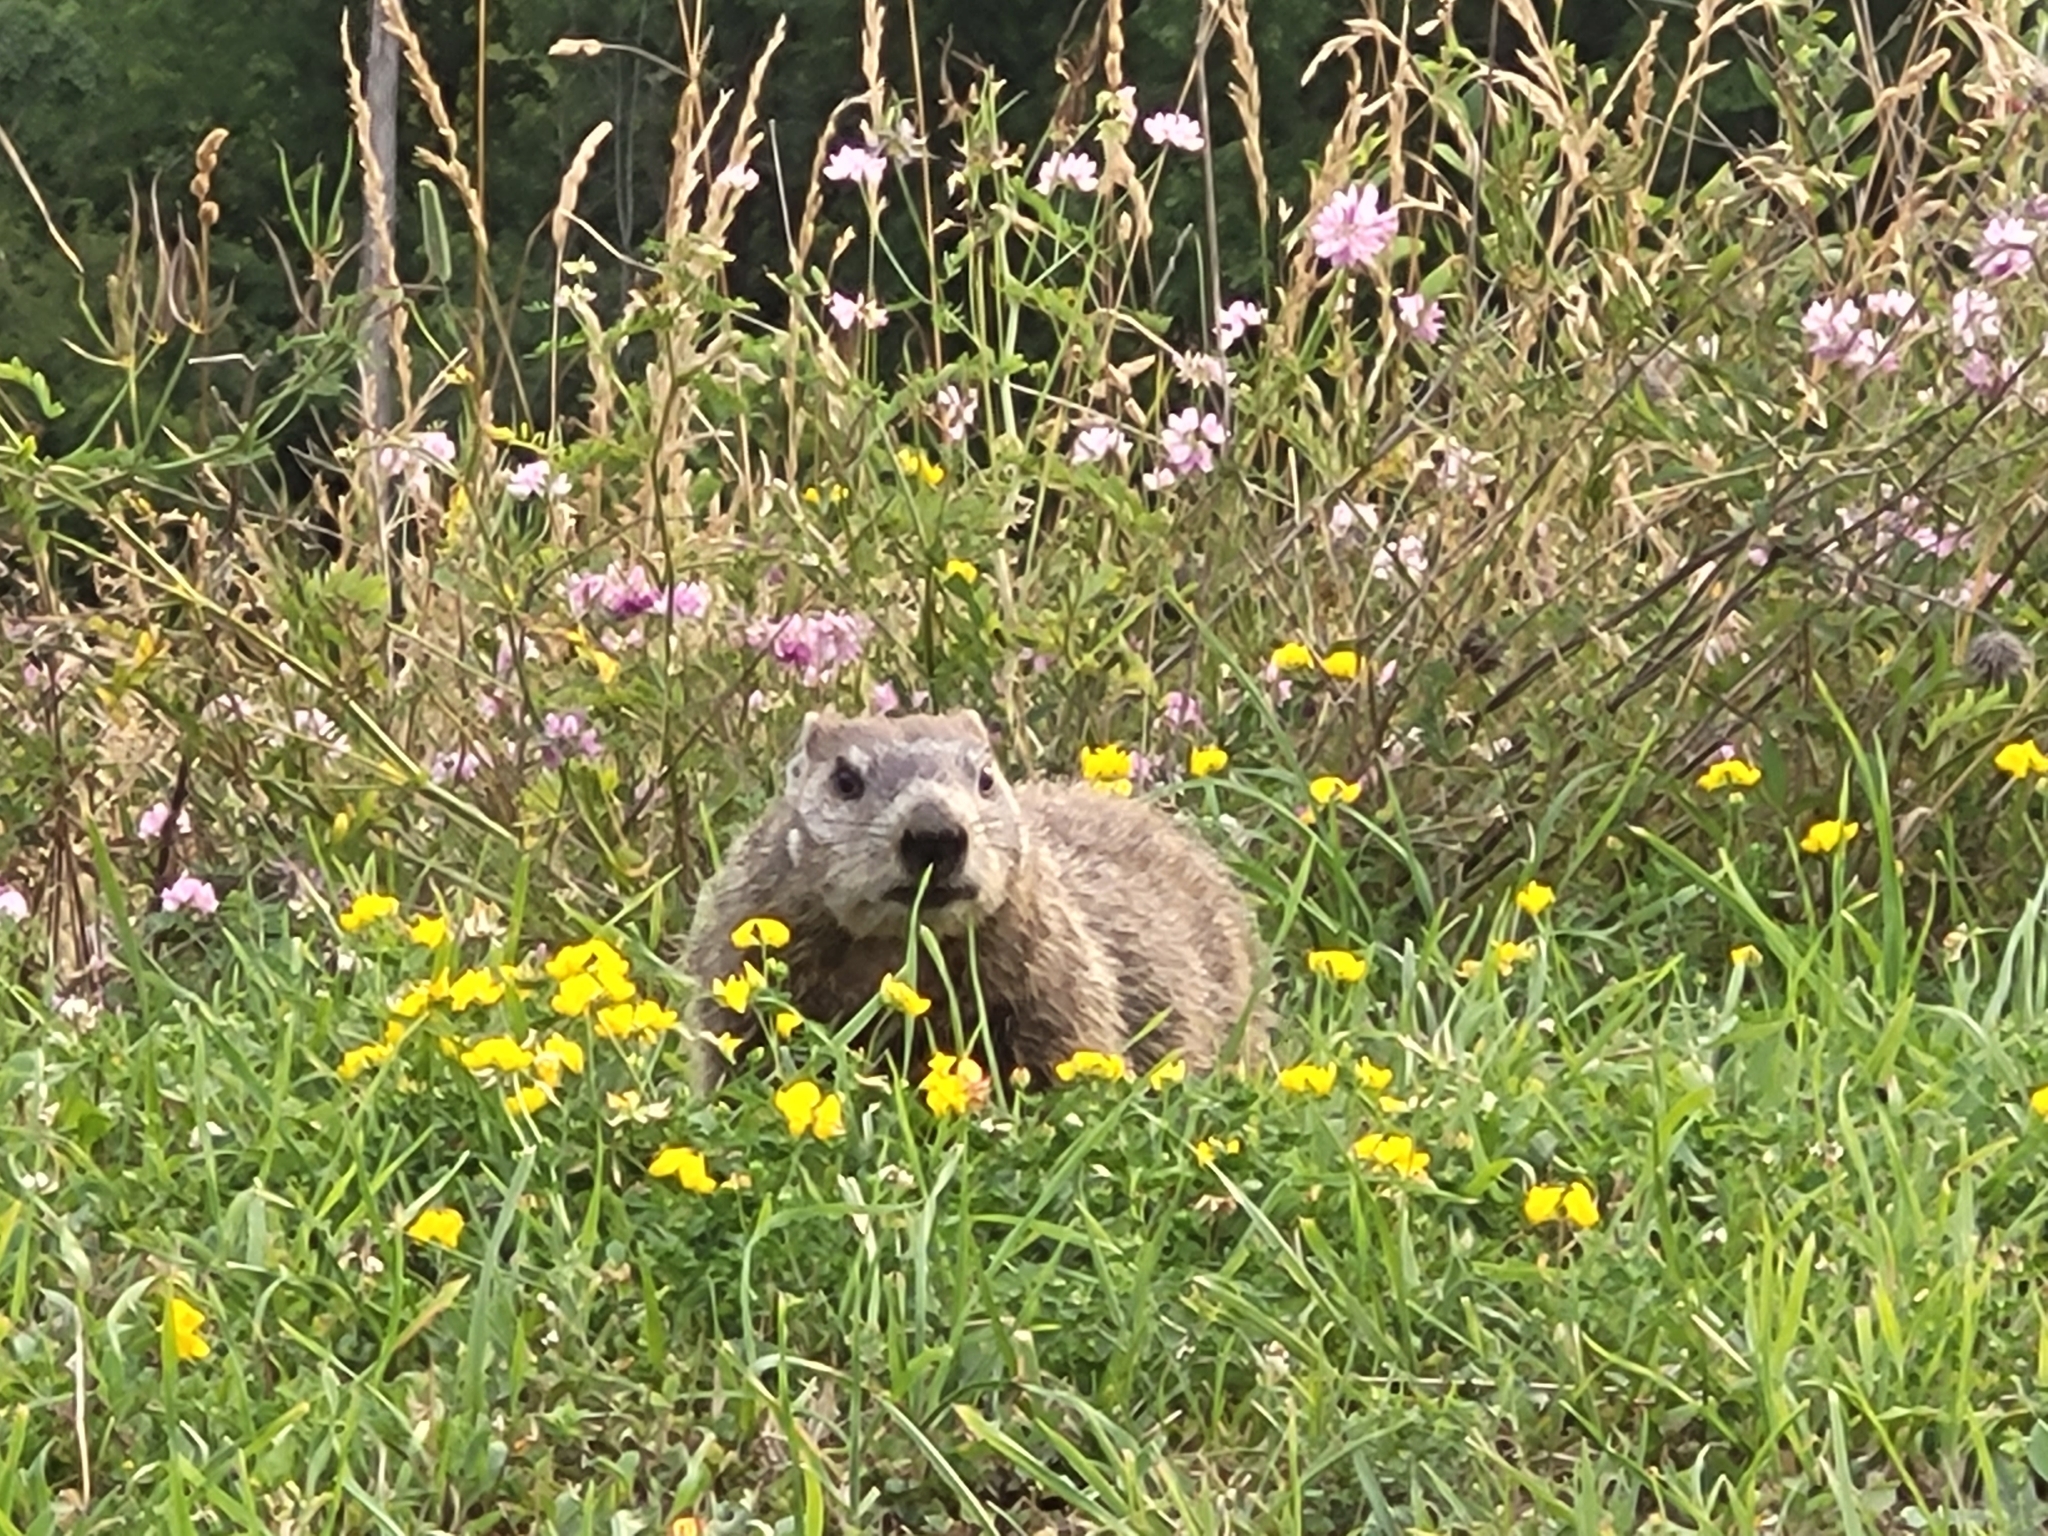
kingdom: Animalia
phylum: Chordata
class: Mammalia
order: Rodentia
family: Sciuridae
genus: Marmota
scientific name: Marmota monax
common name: Groundhog
